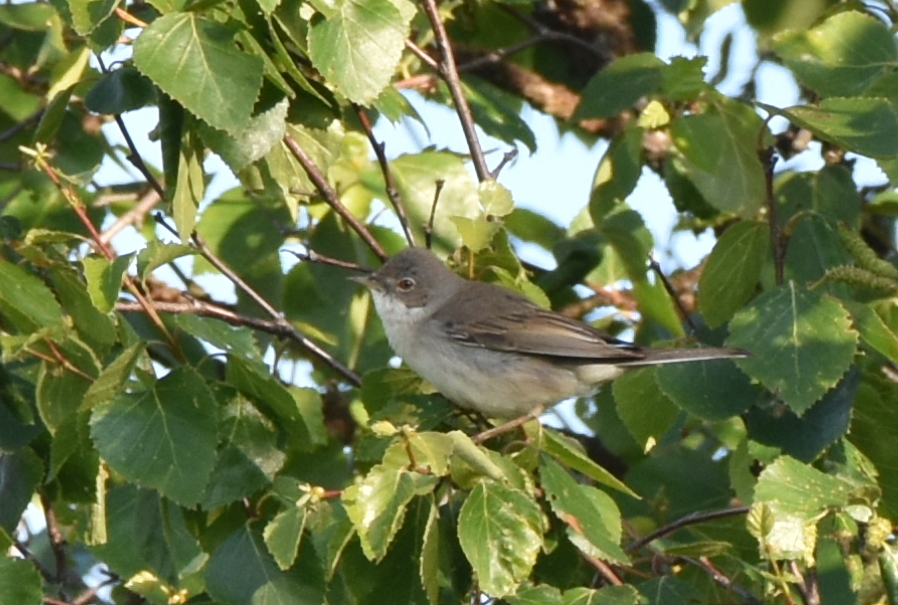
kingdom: Animalia
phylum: Chordata
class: Aves
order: Passeriformes
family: Sylviidae
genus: Sylvia
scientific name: Sylvia communis
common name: Common whitethroat
